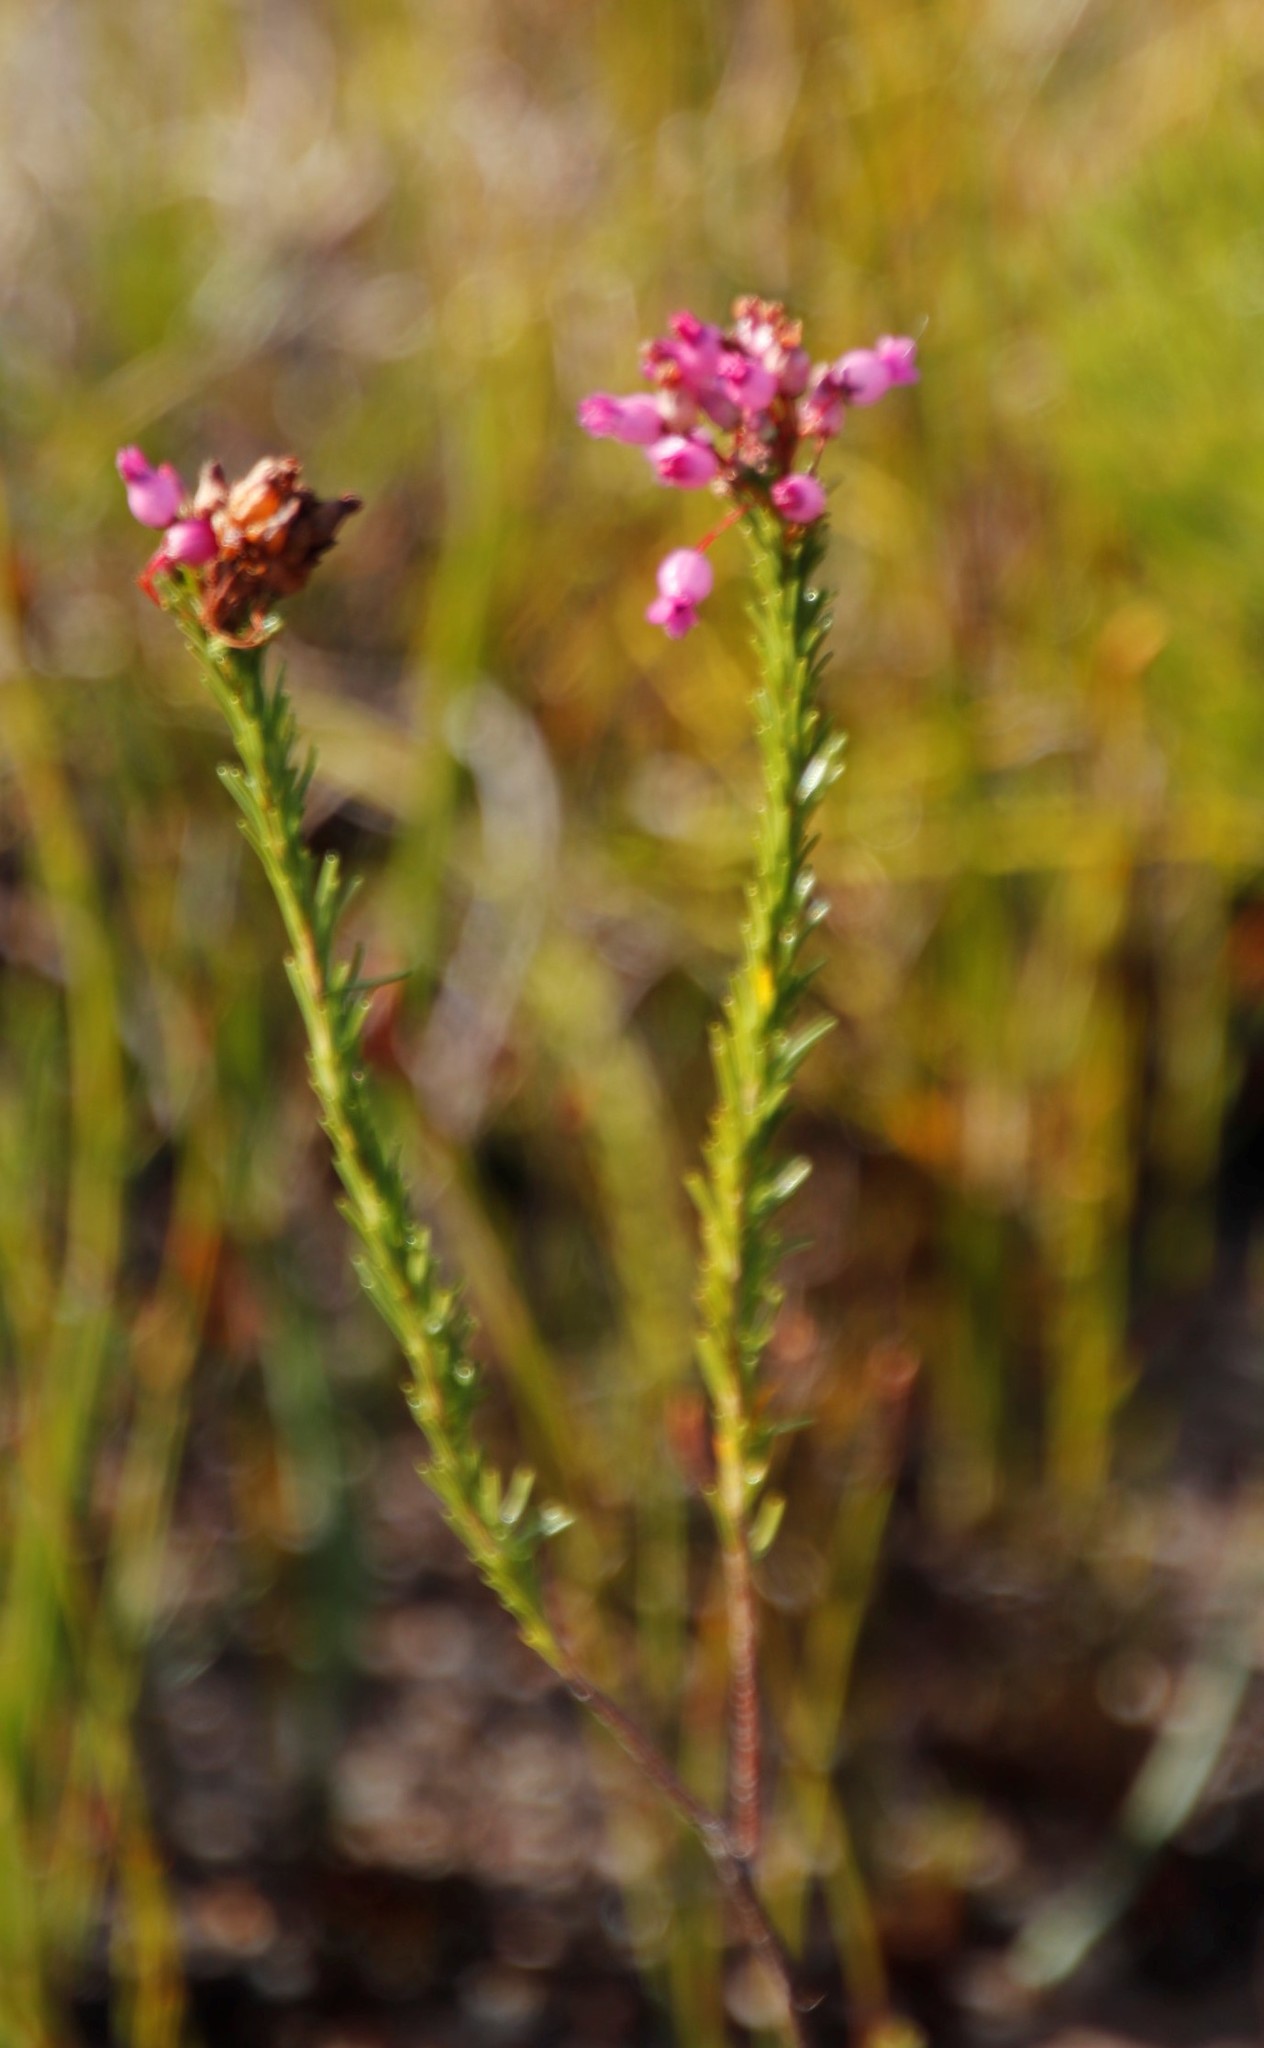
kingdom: Plantae
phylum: Tracheophyta
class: Magnoliopsida
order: Ericales
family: Ericaceae
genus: Erica
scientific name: Erica obliqua
